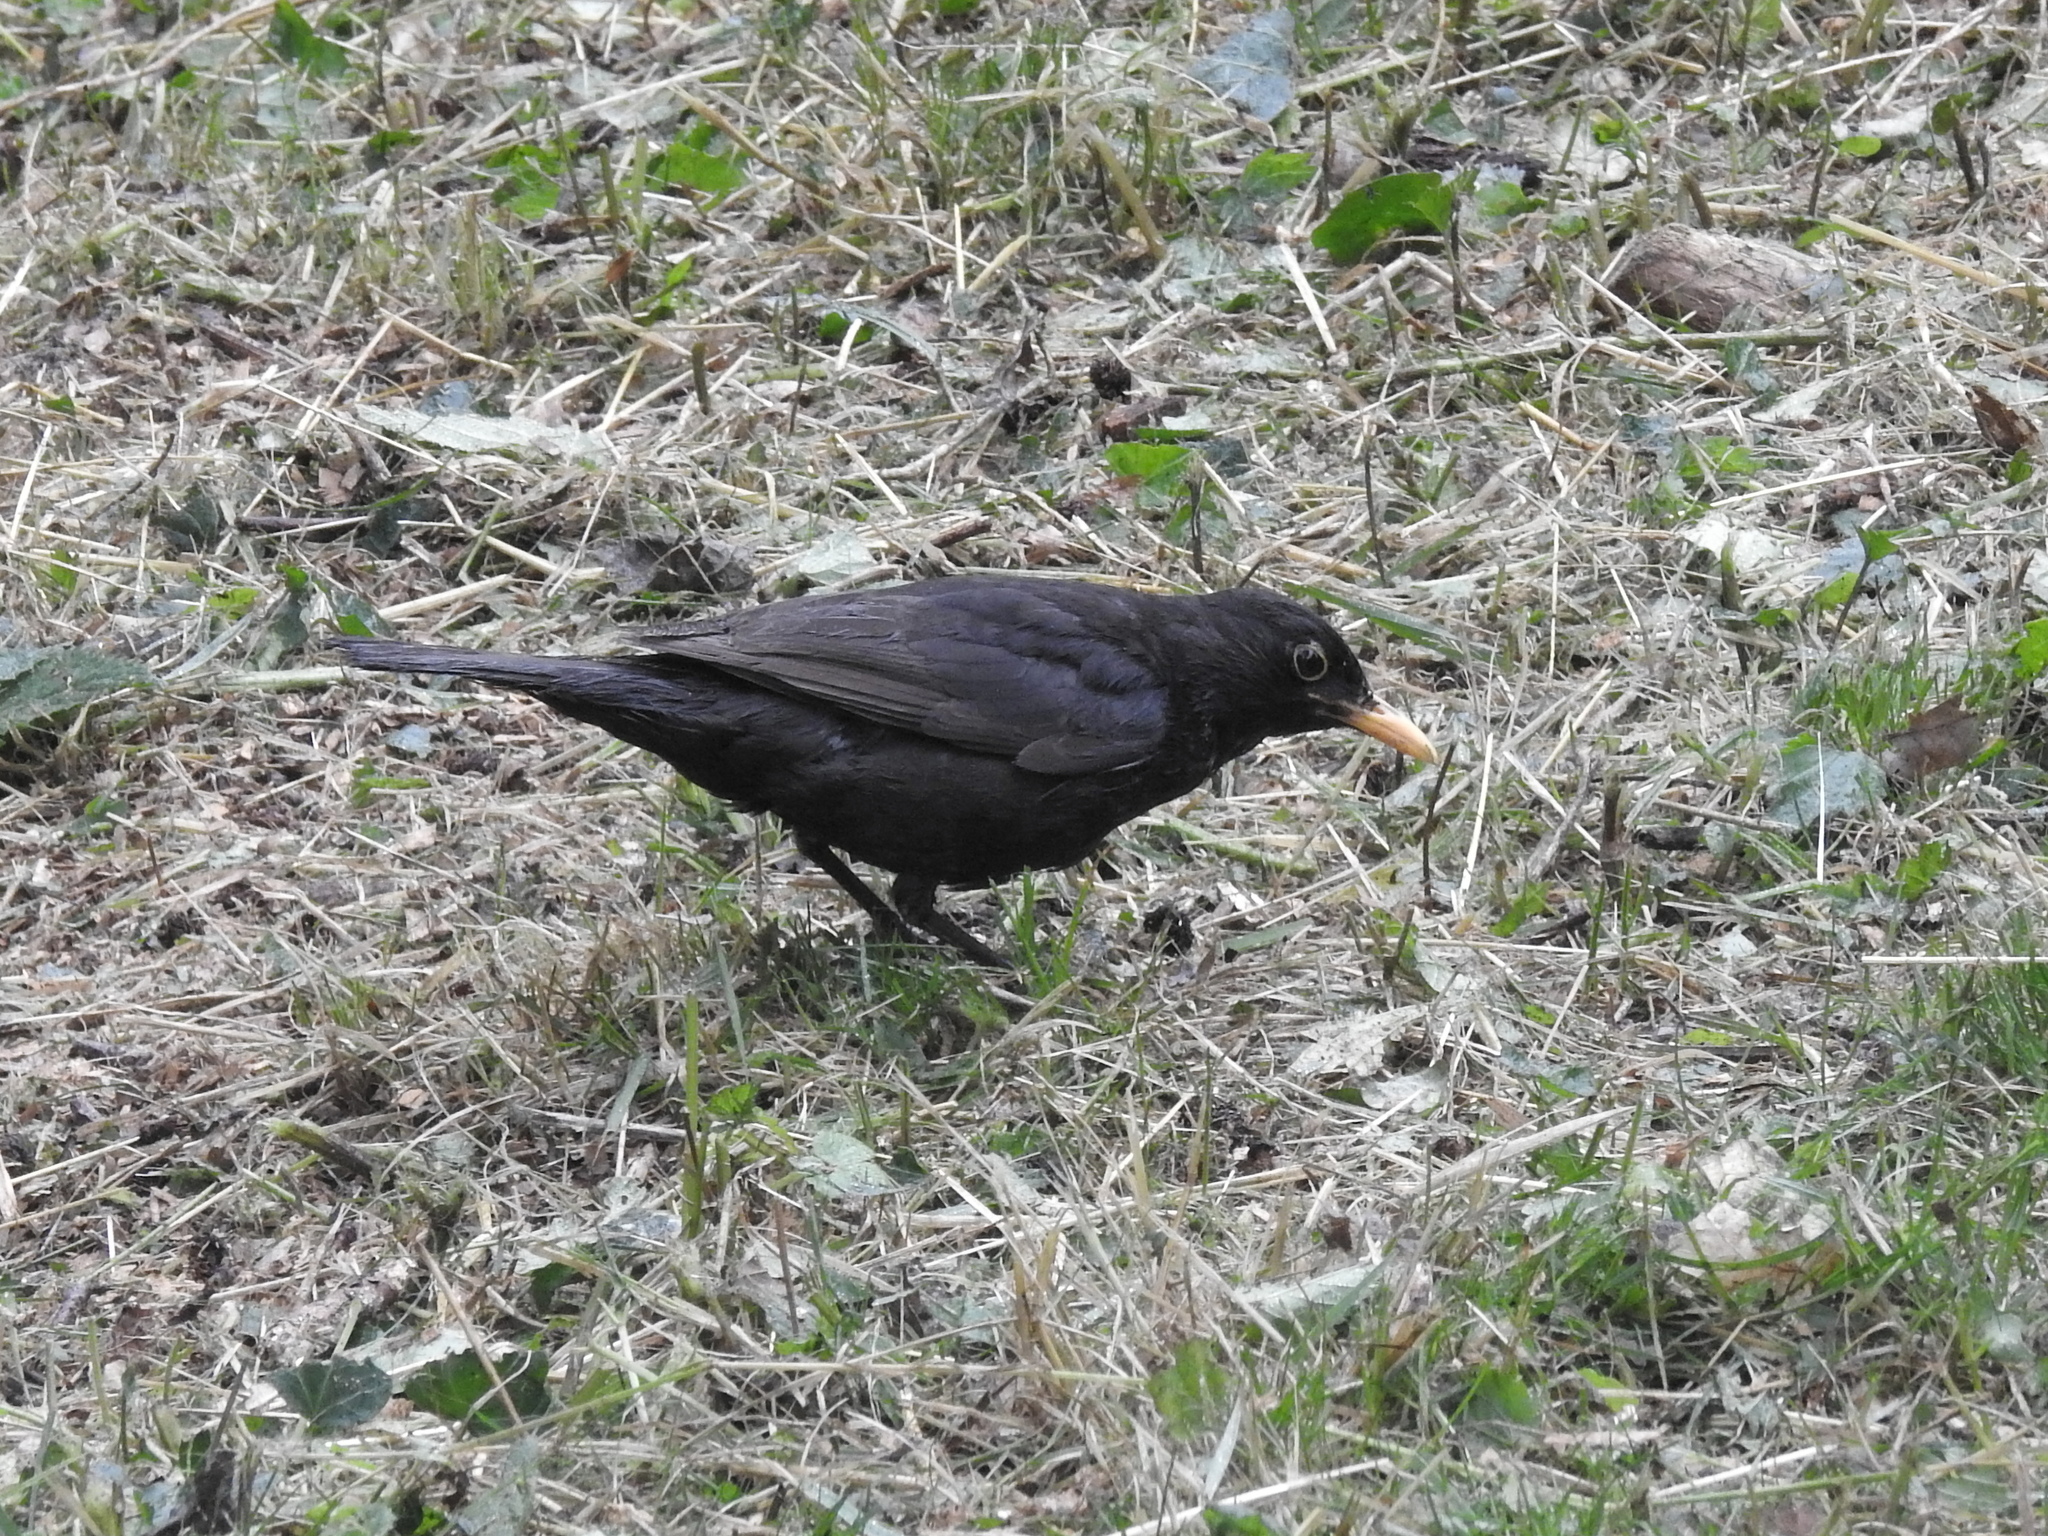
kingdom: Animalia
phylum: Chordata
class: Aves
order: Passeriformes
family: Turdidae
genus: Turdus
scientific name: Turdus merula
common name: Common blackbird
